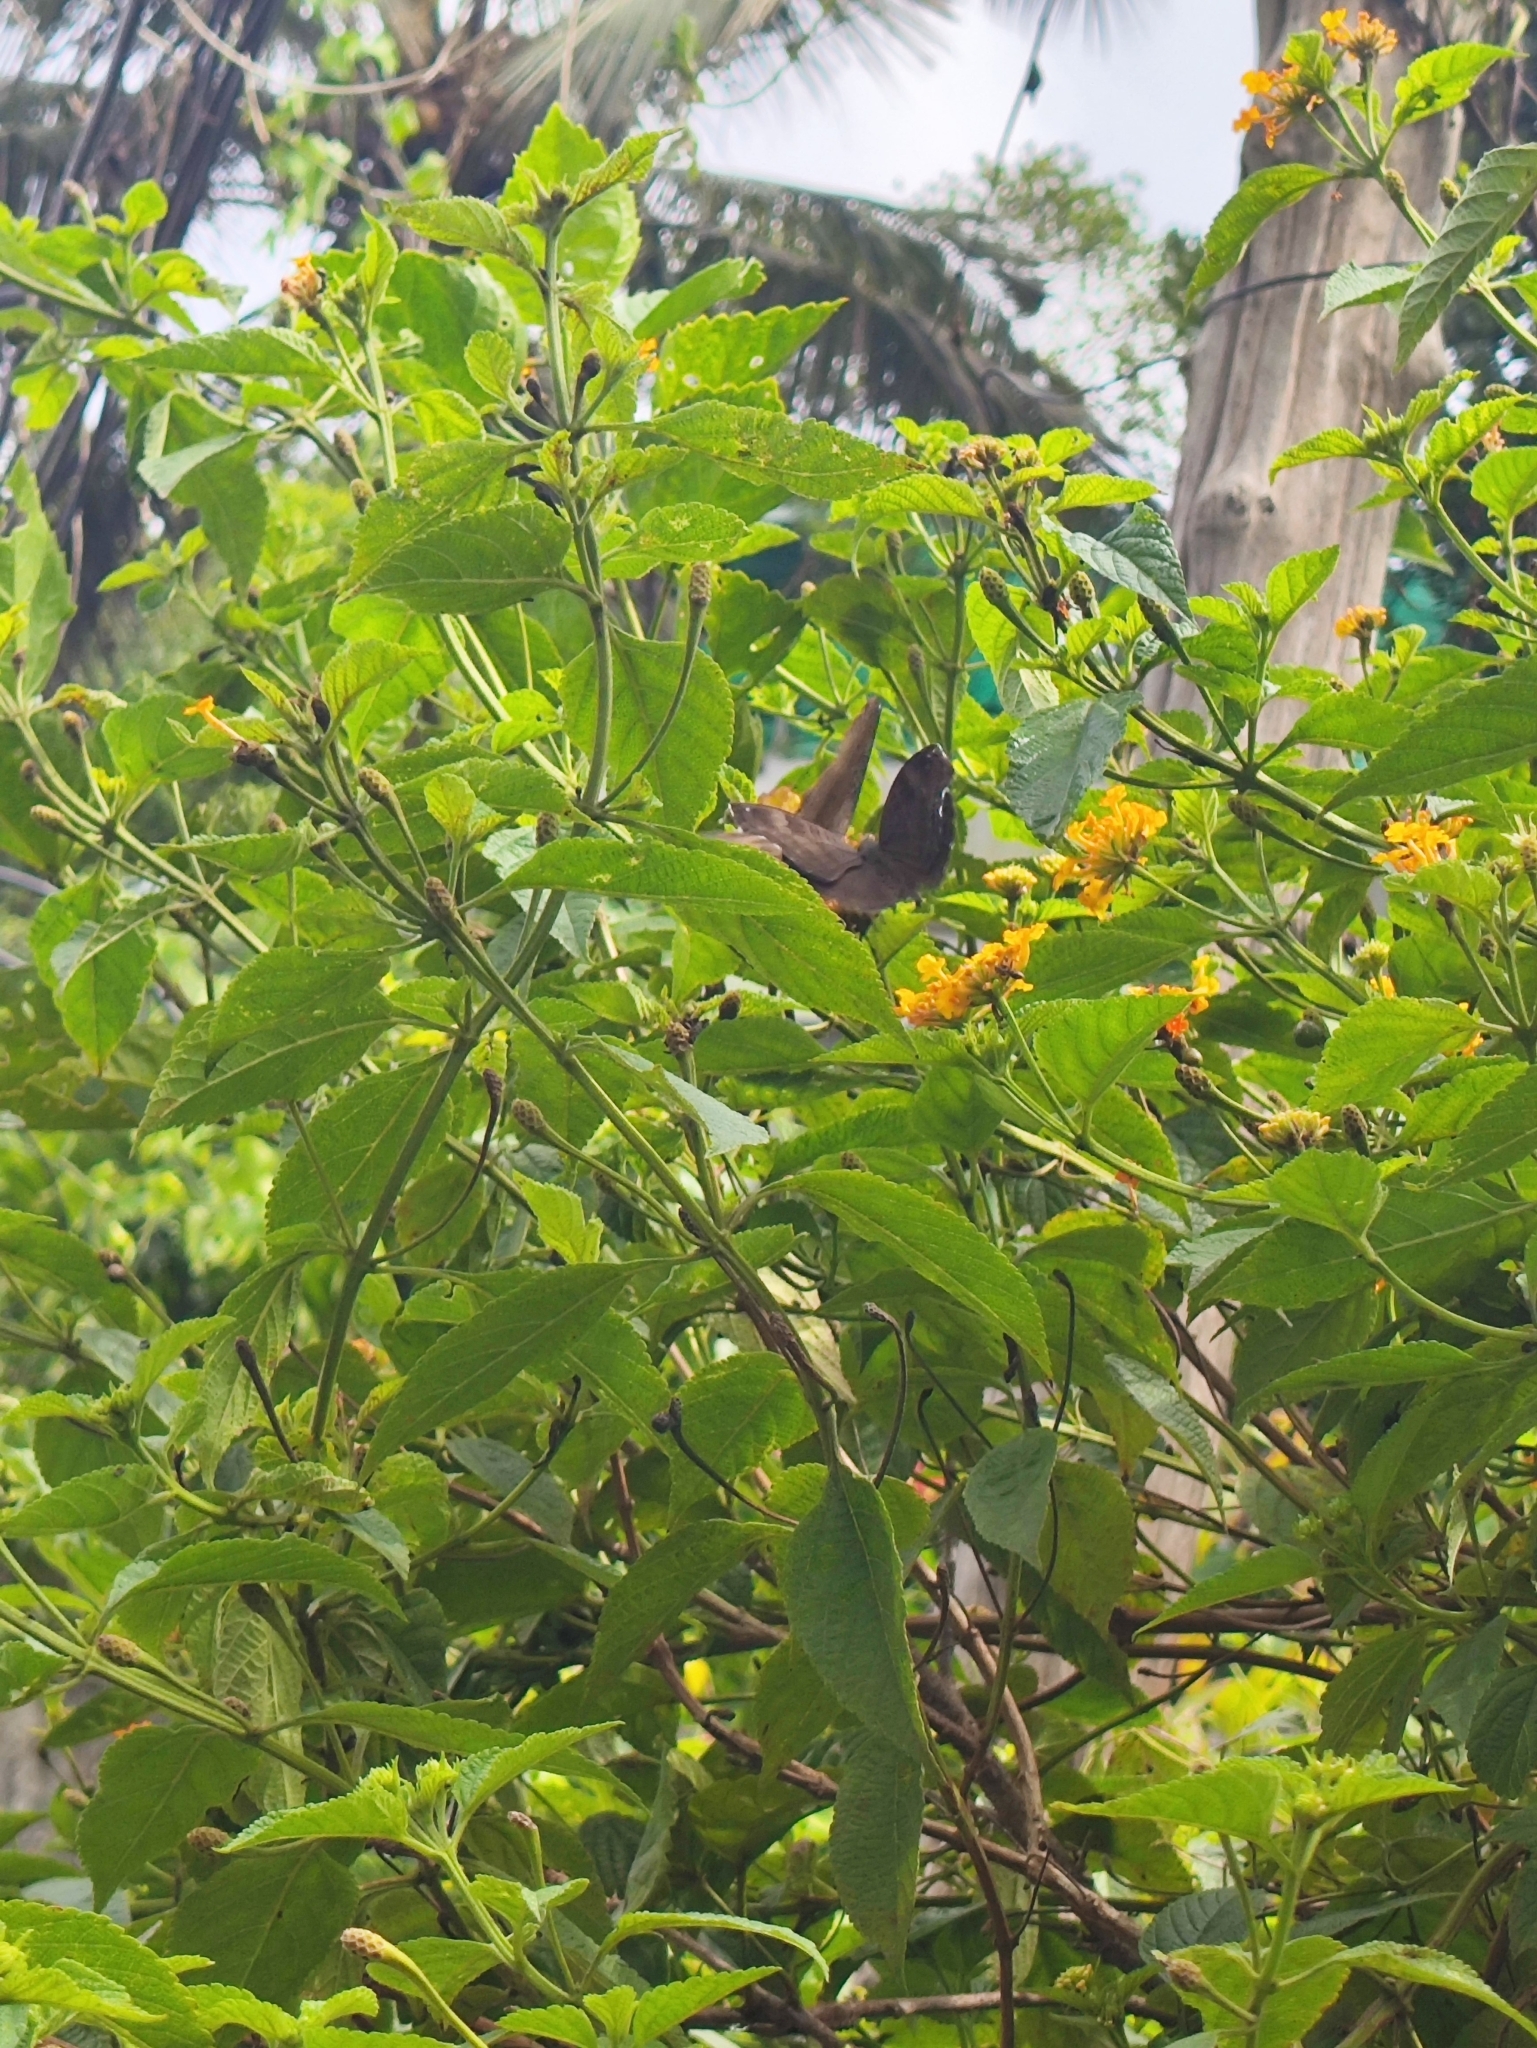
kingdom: Animalia
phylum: Arthropoda
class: Insecta
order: Lepidoptera
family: Nymphalidae
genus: Junonia
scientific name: Junonia iphita
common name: Chocolate pansy
